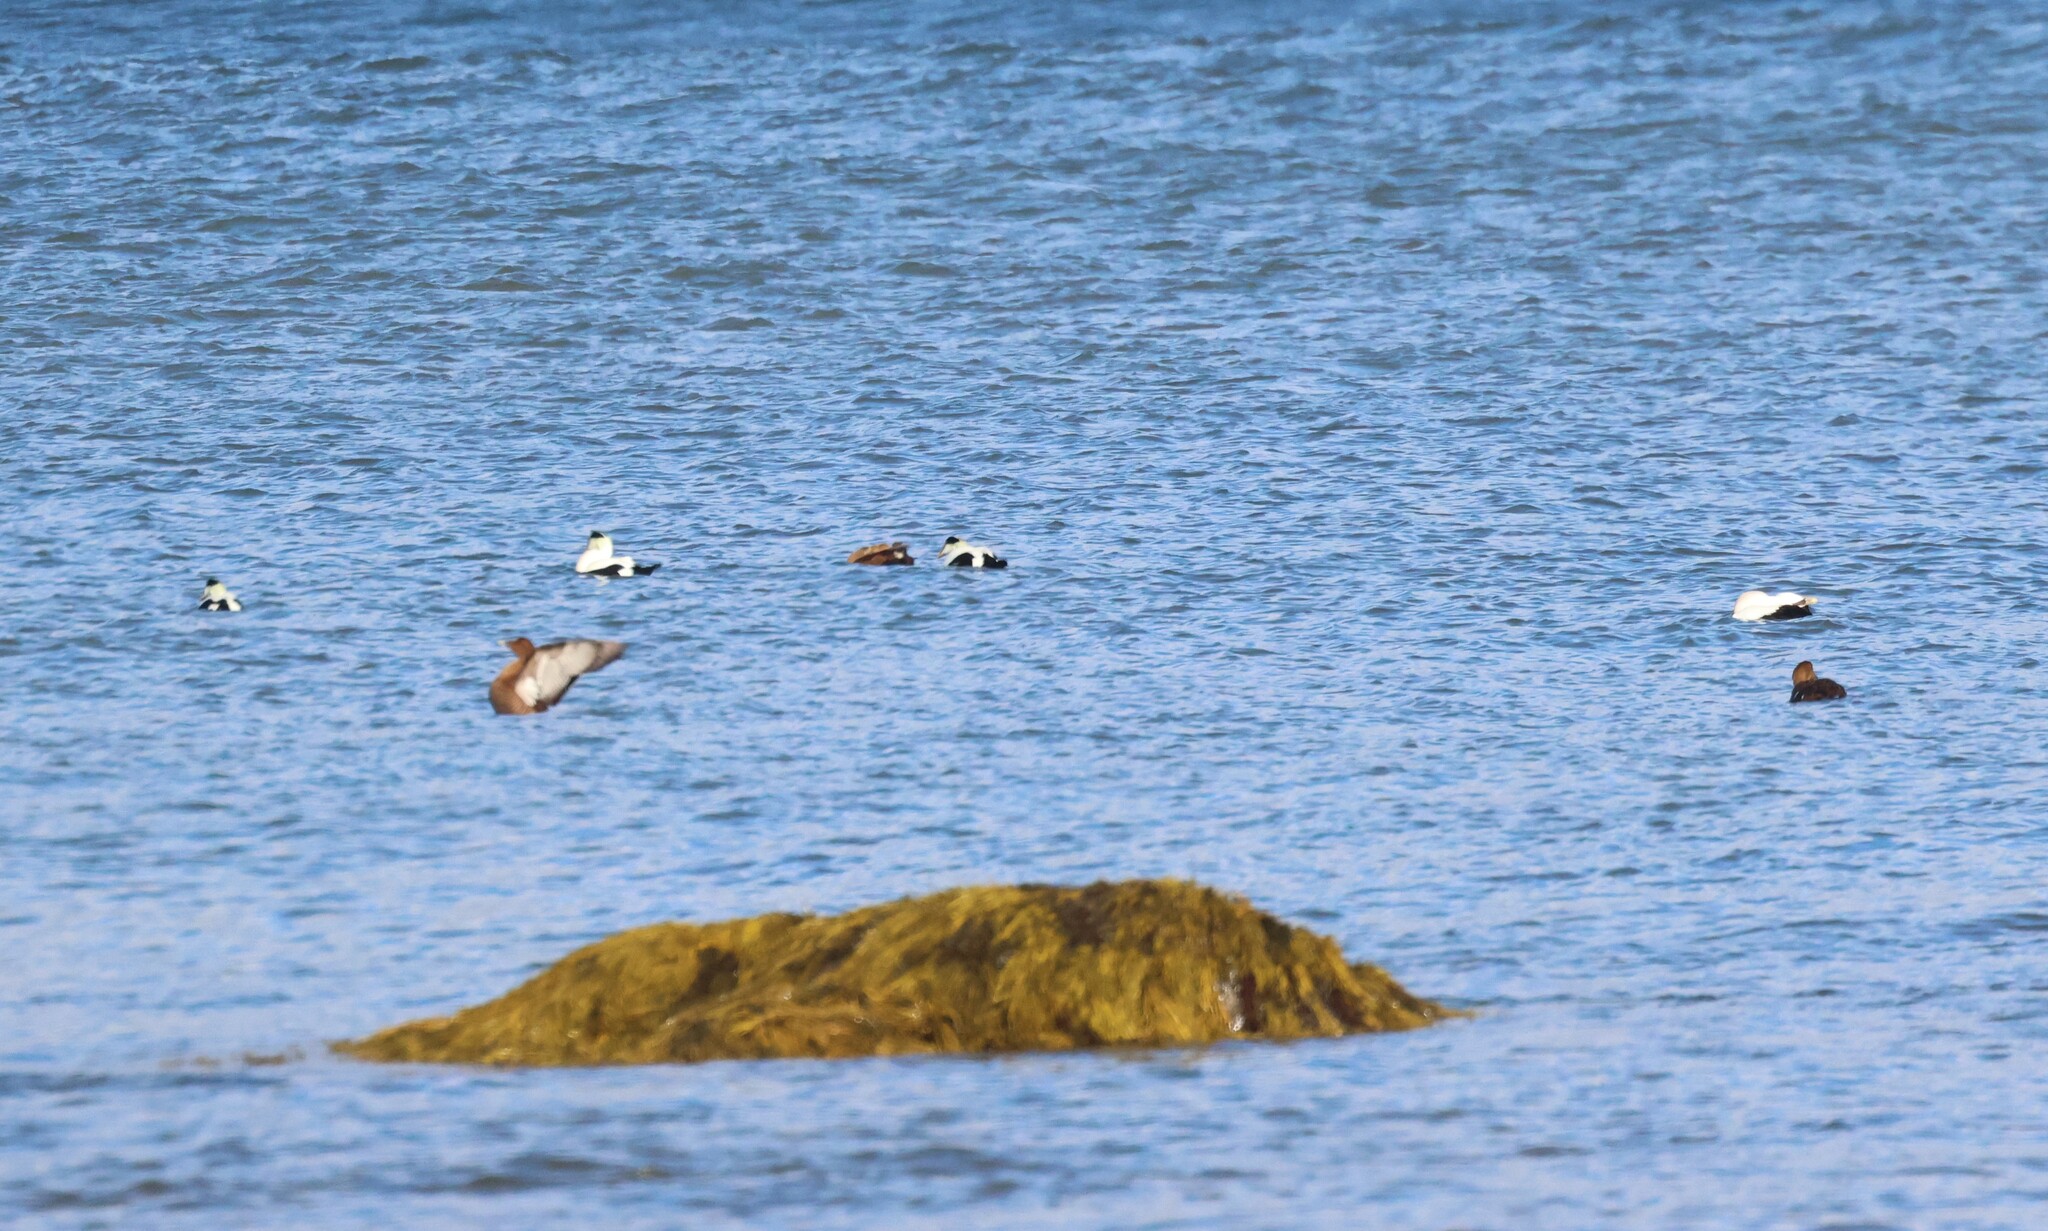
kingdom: Animalia
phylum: Chordata
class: Aves
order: Anseriformes
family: Anatidae
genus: Somateria
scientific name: Somateria mollissima
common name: Common eider
